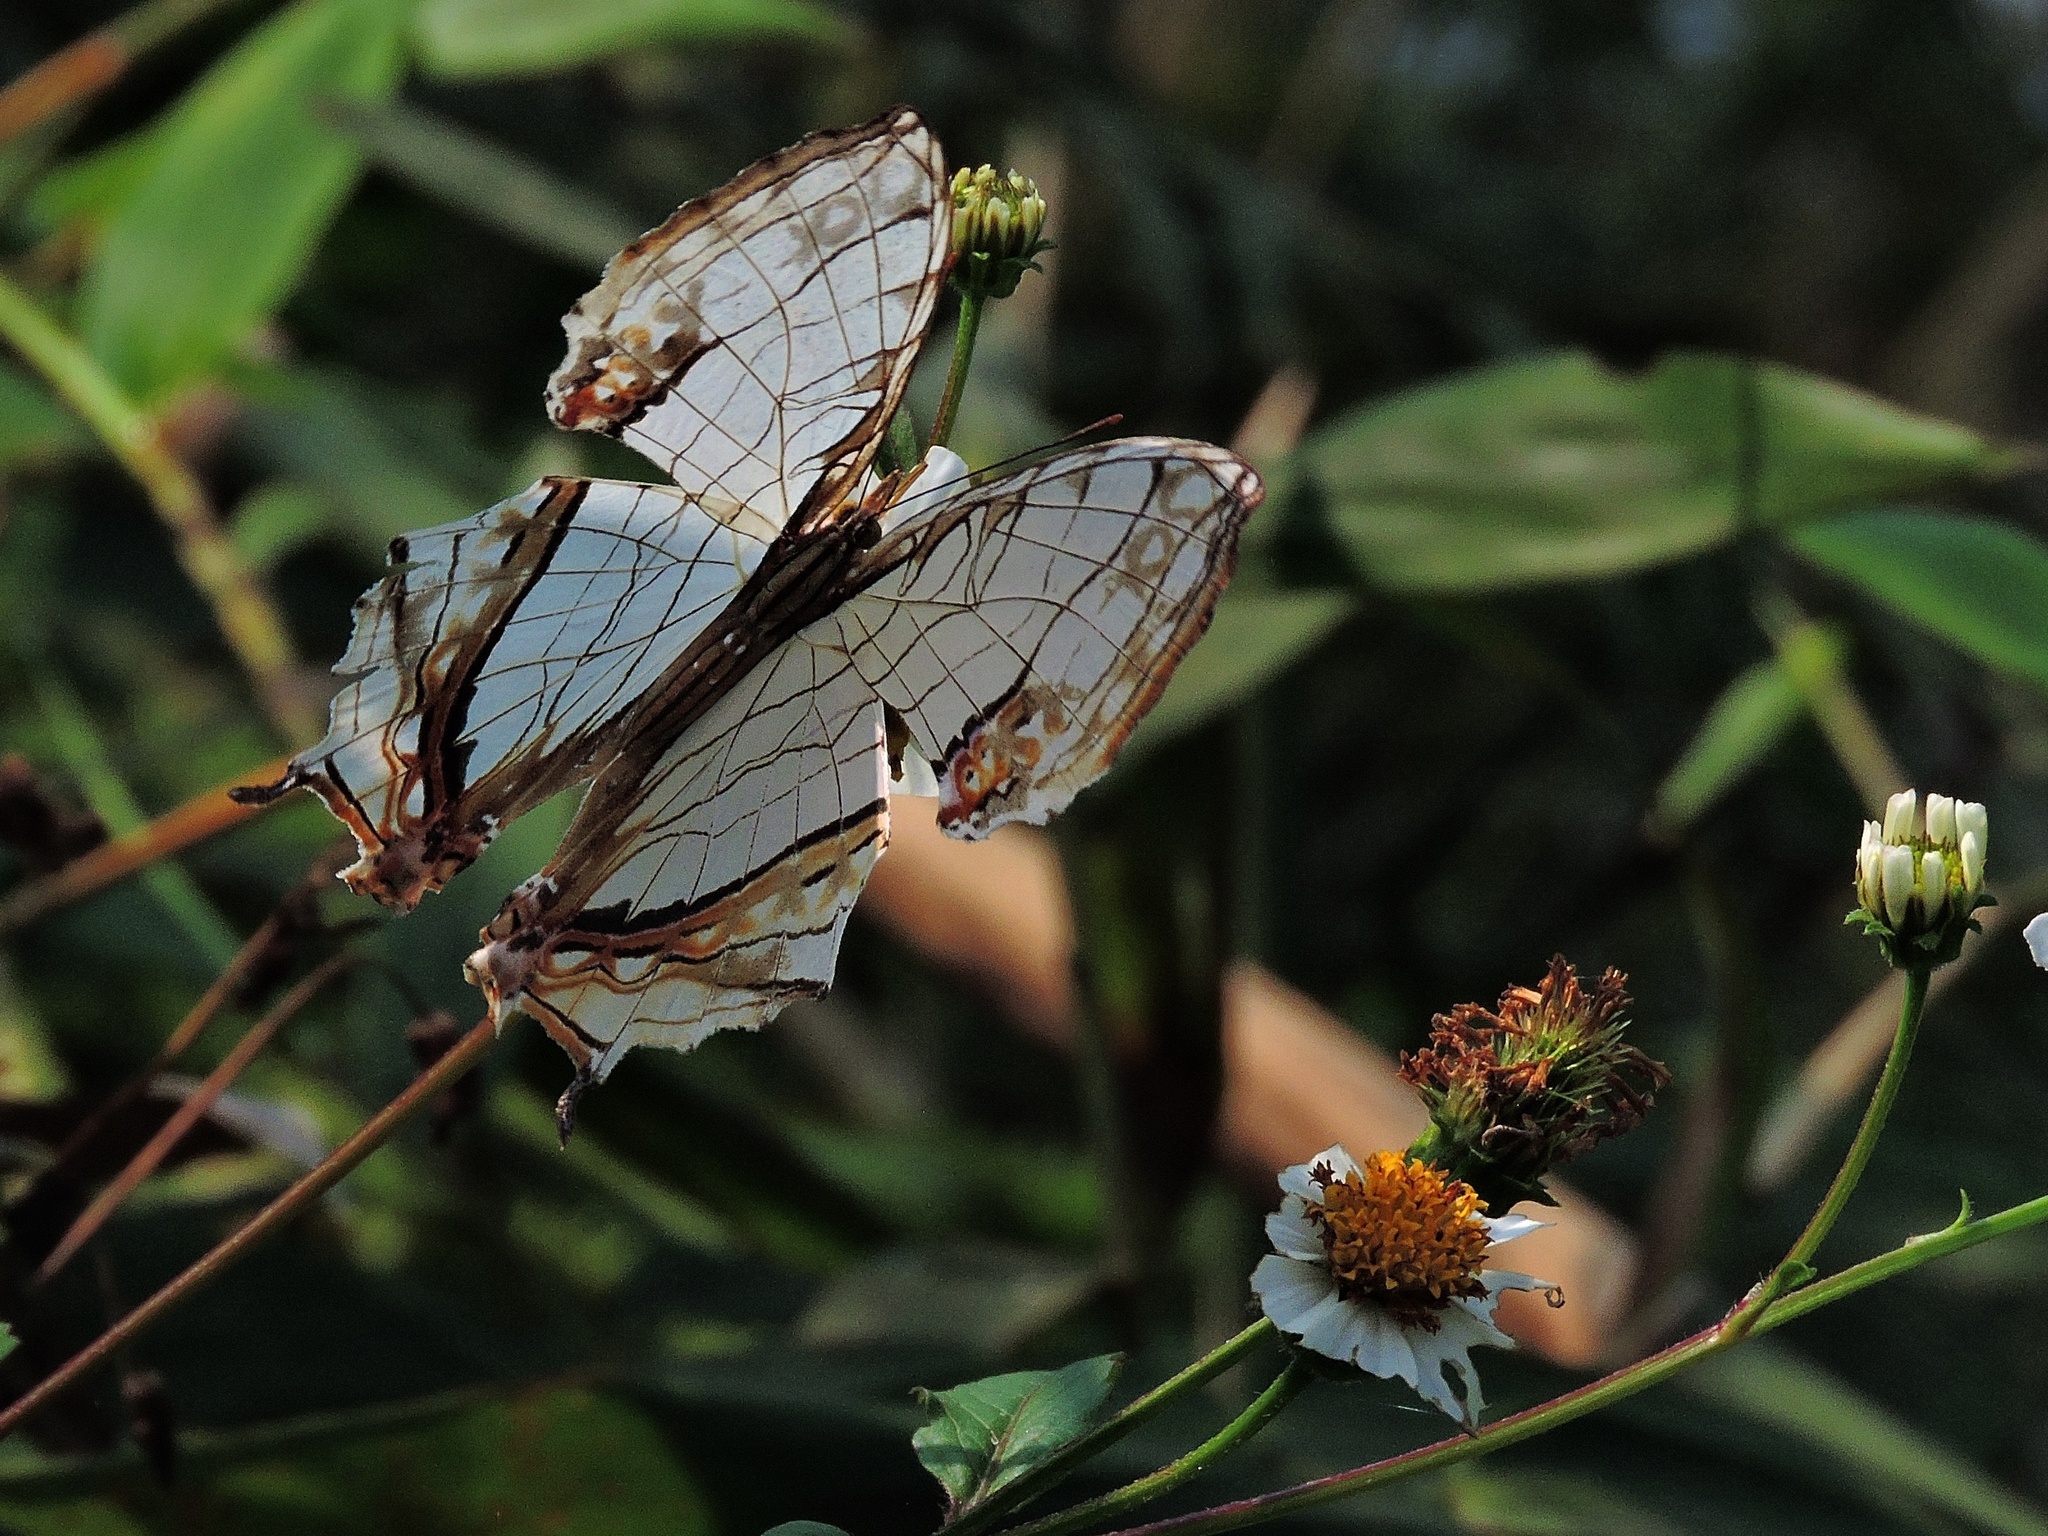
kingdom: Animalia
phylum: Arthropoda
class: Insecta
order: Lepidoptera
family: Nymphalidae
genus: Cyrestis
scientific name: Cyrestis thyodamas
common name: Common mapwing
